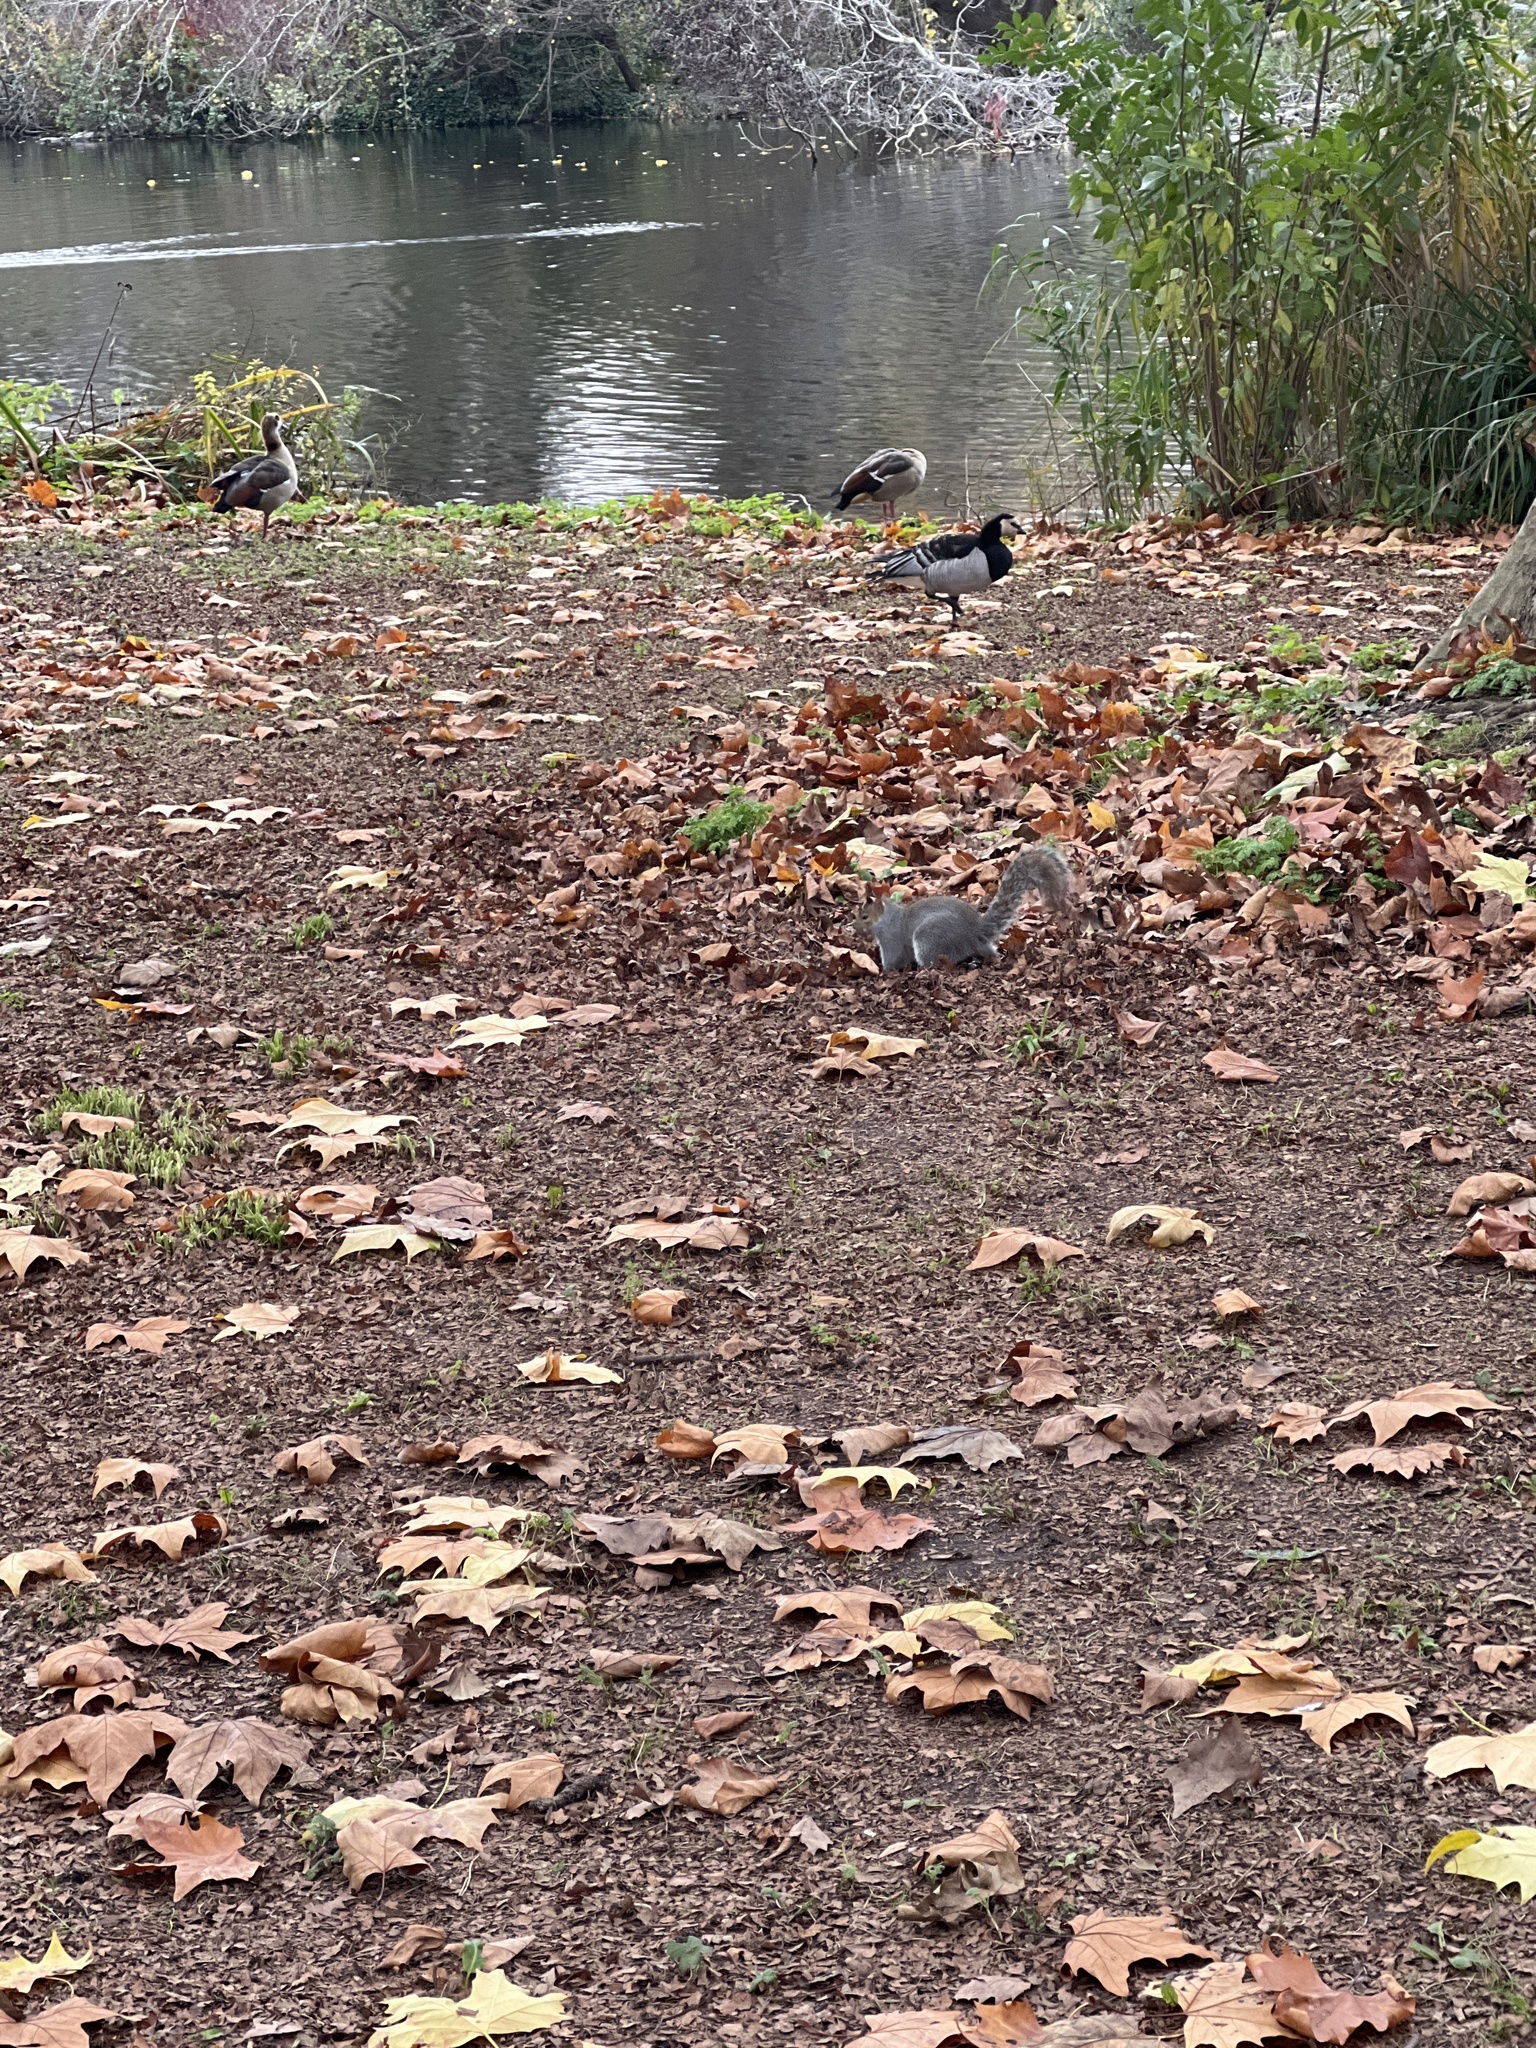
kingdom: Animalia
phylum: Chordata
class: Mammalia
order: Rodentia
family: Sciuridae
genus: Sciurus
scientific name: Sciurus carolinensis
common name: Eastern gray squirrel
